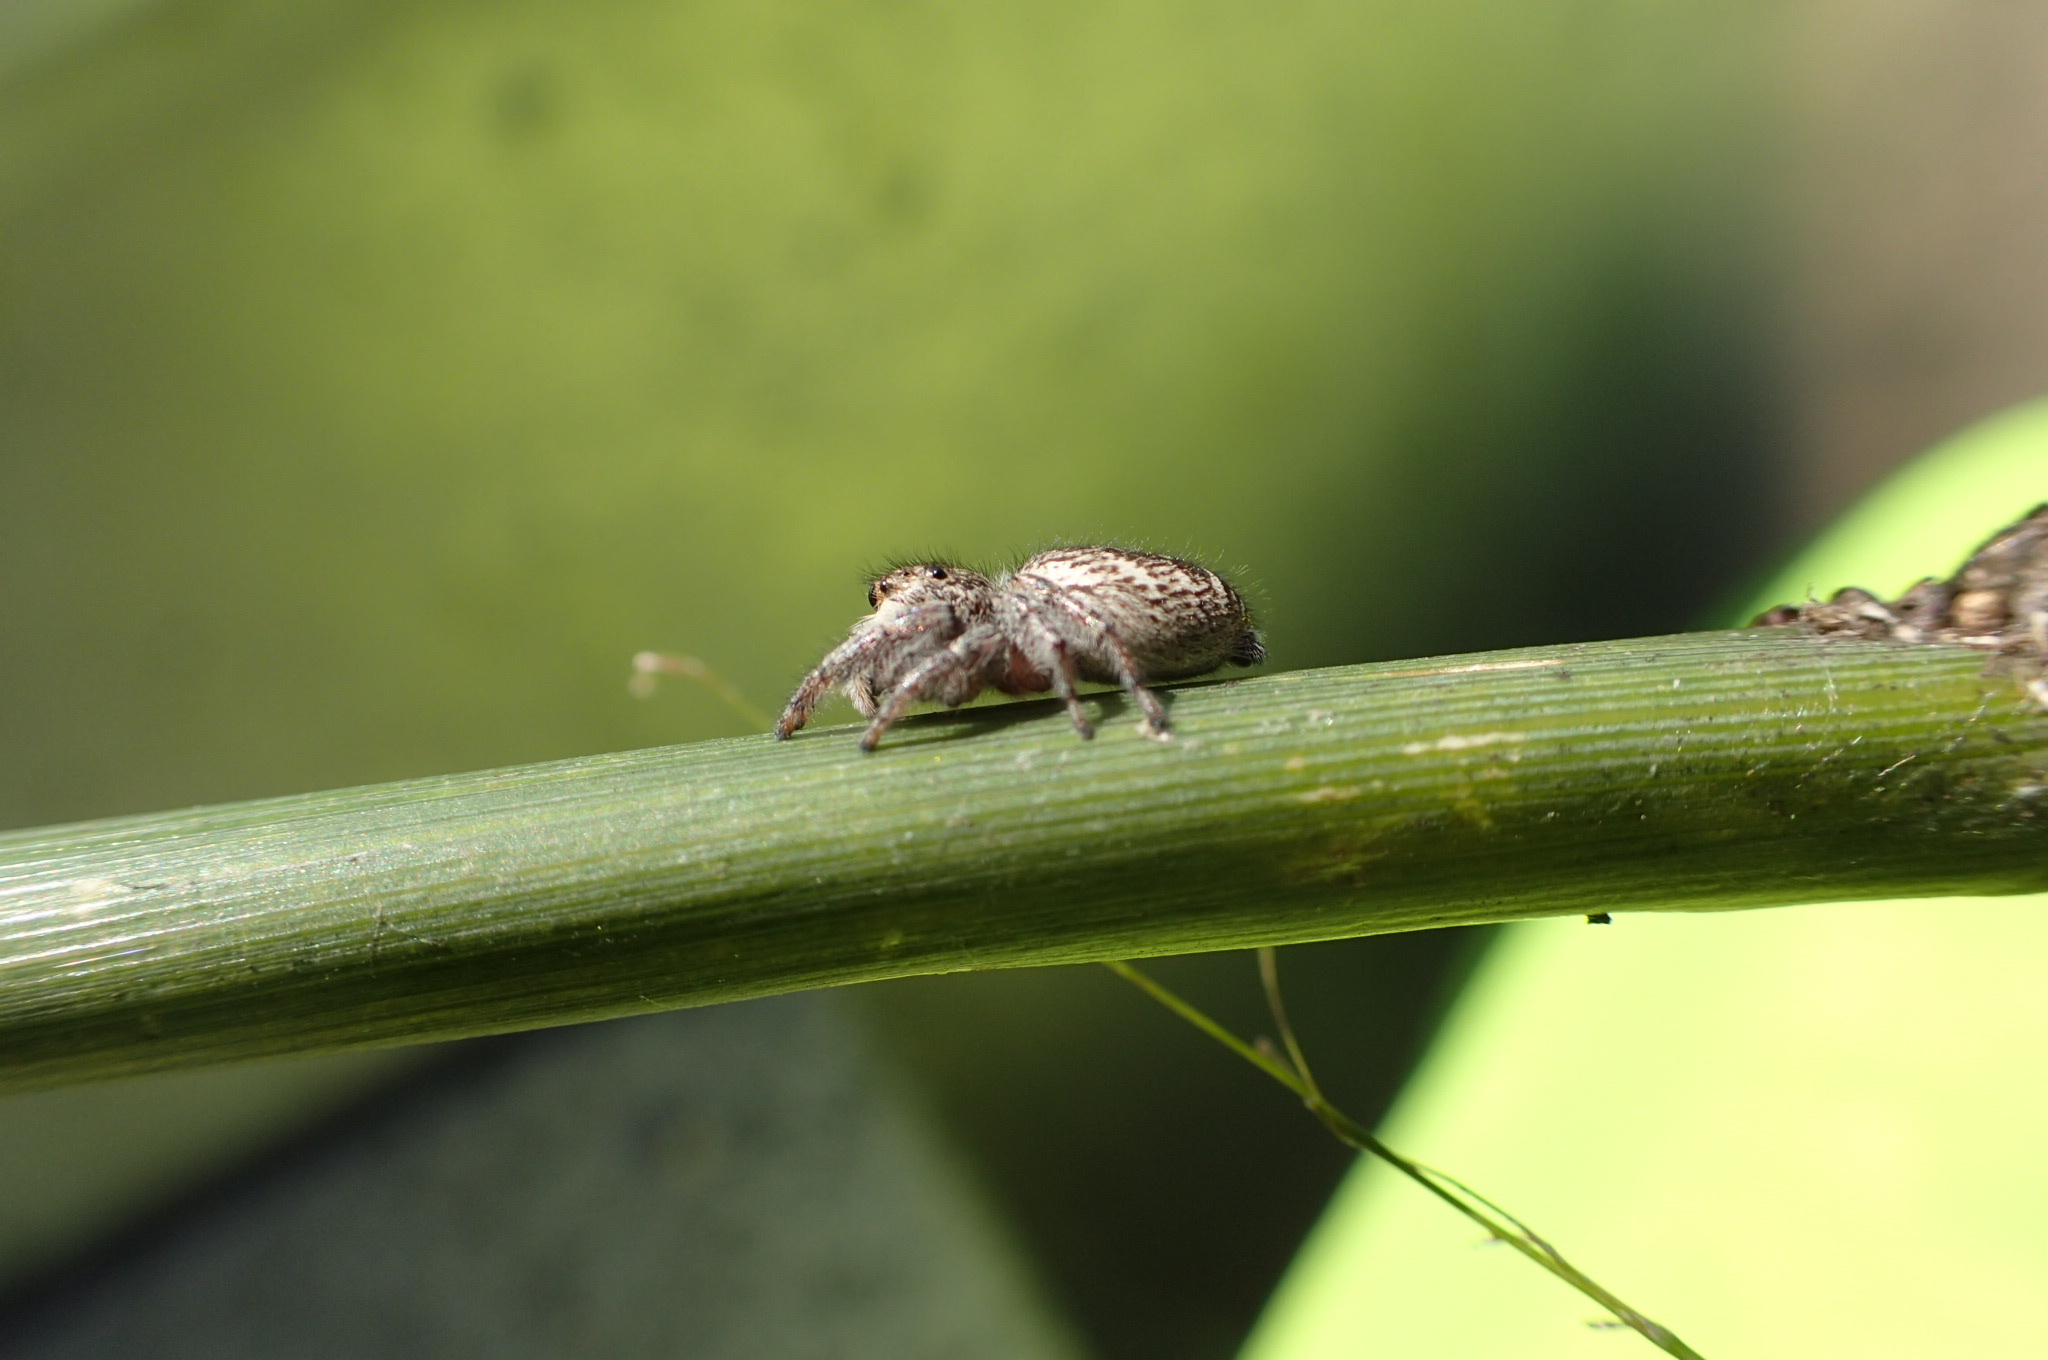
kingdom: Animalia
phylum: Arthropoda
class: Arachnida
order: Araneae
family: Salticidae
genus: Eris
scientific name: Eris militaris
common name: Bronze jumper
